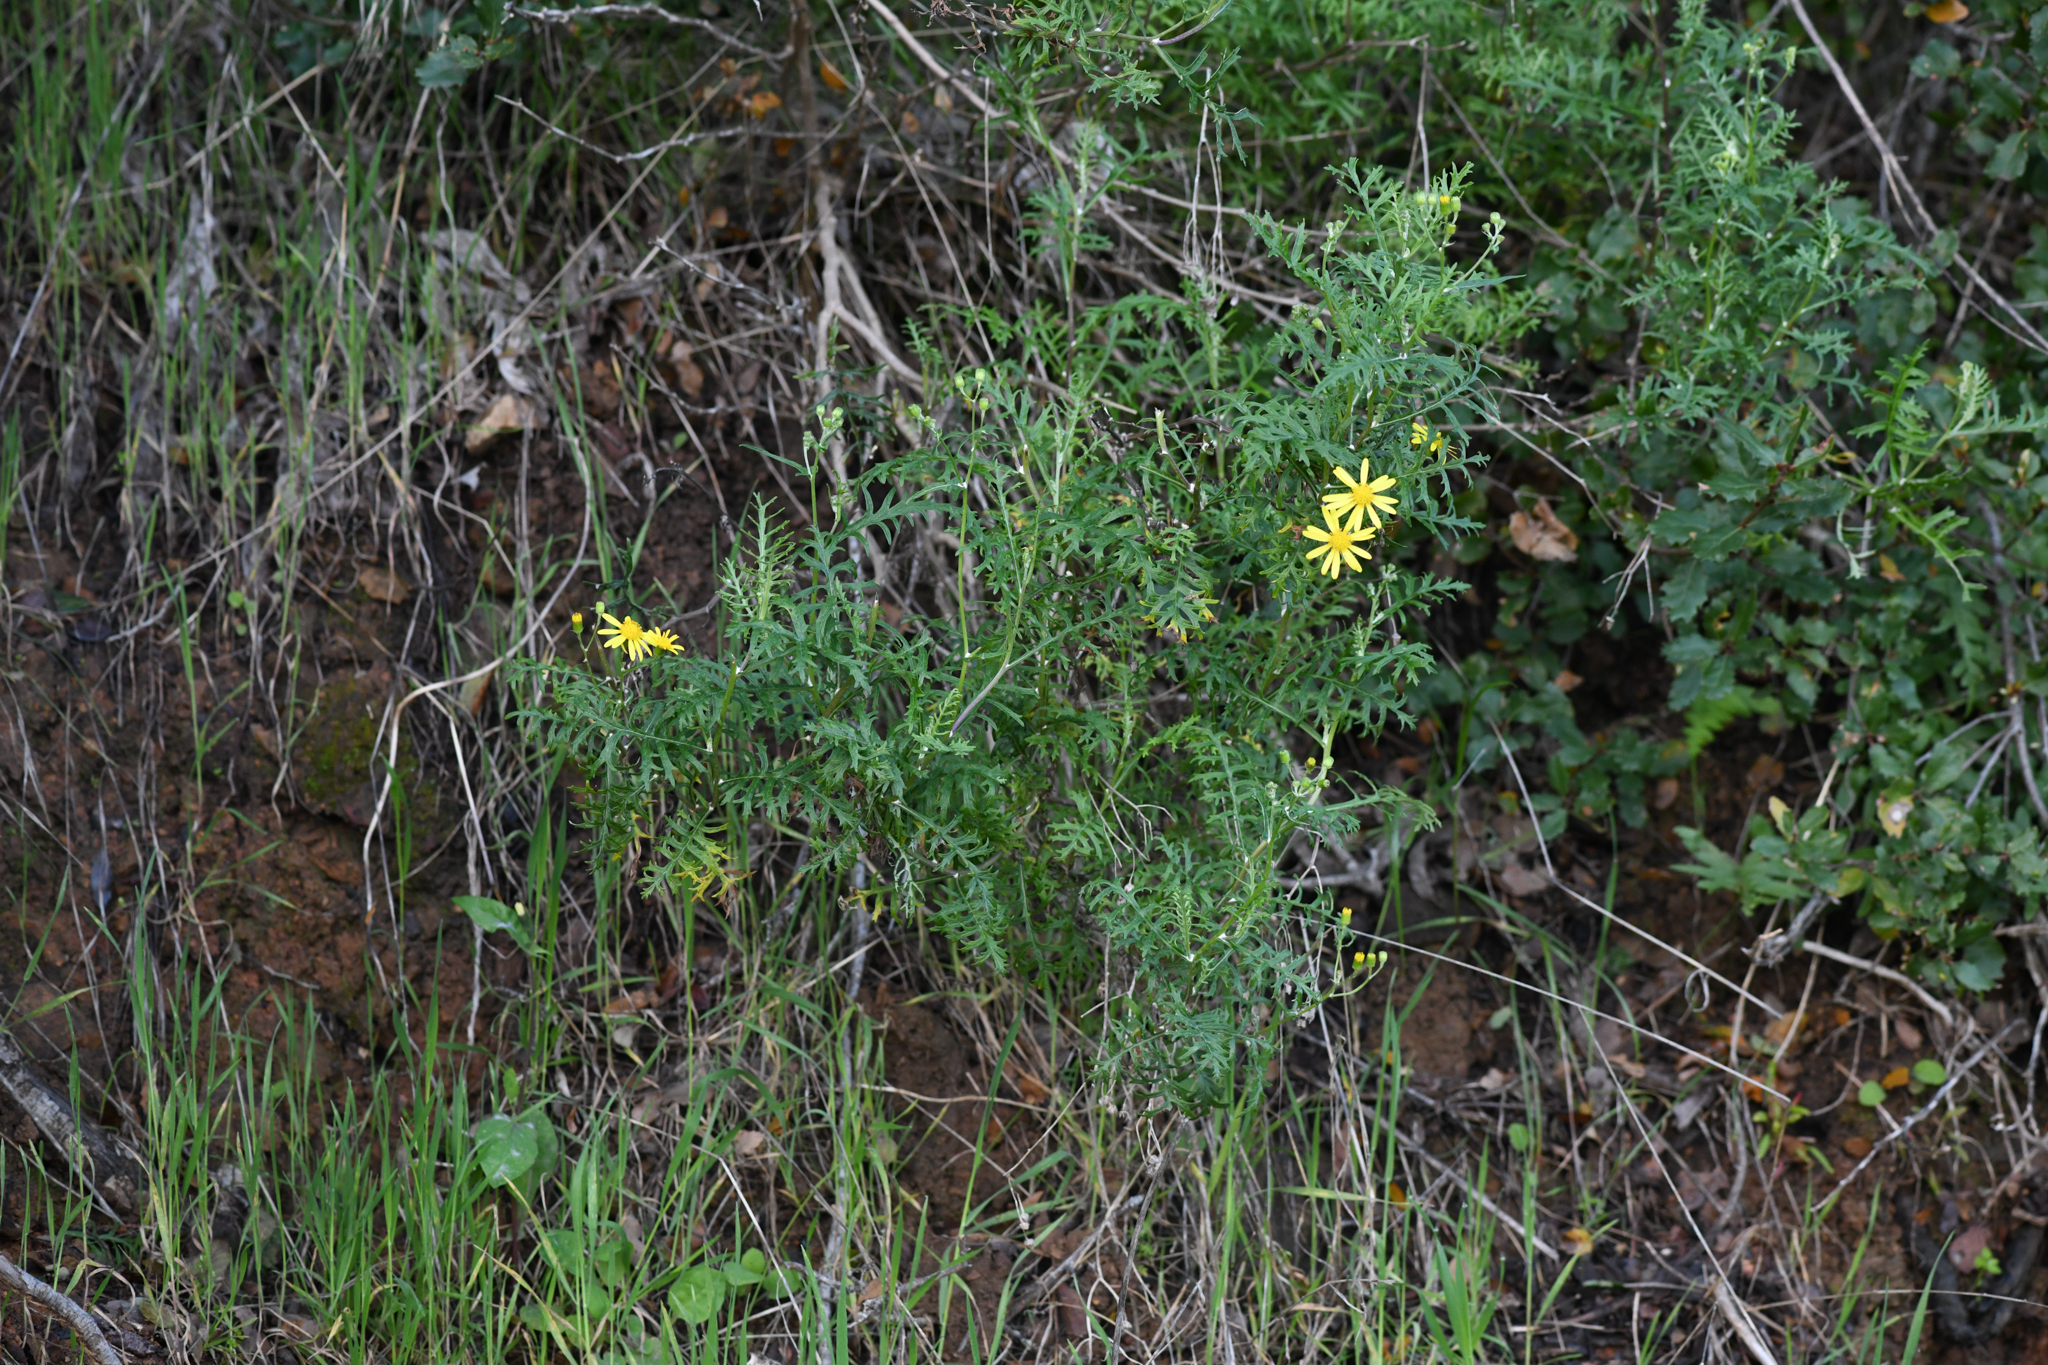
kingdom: Plantae
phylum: Tracheophyta
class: Magnoliopsida
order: Asterales
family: Asteraceae
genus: Senecio
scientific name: Senecio lyonii
